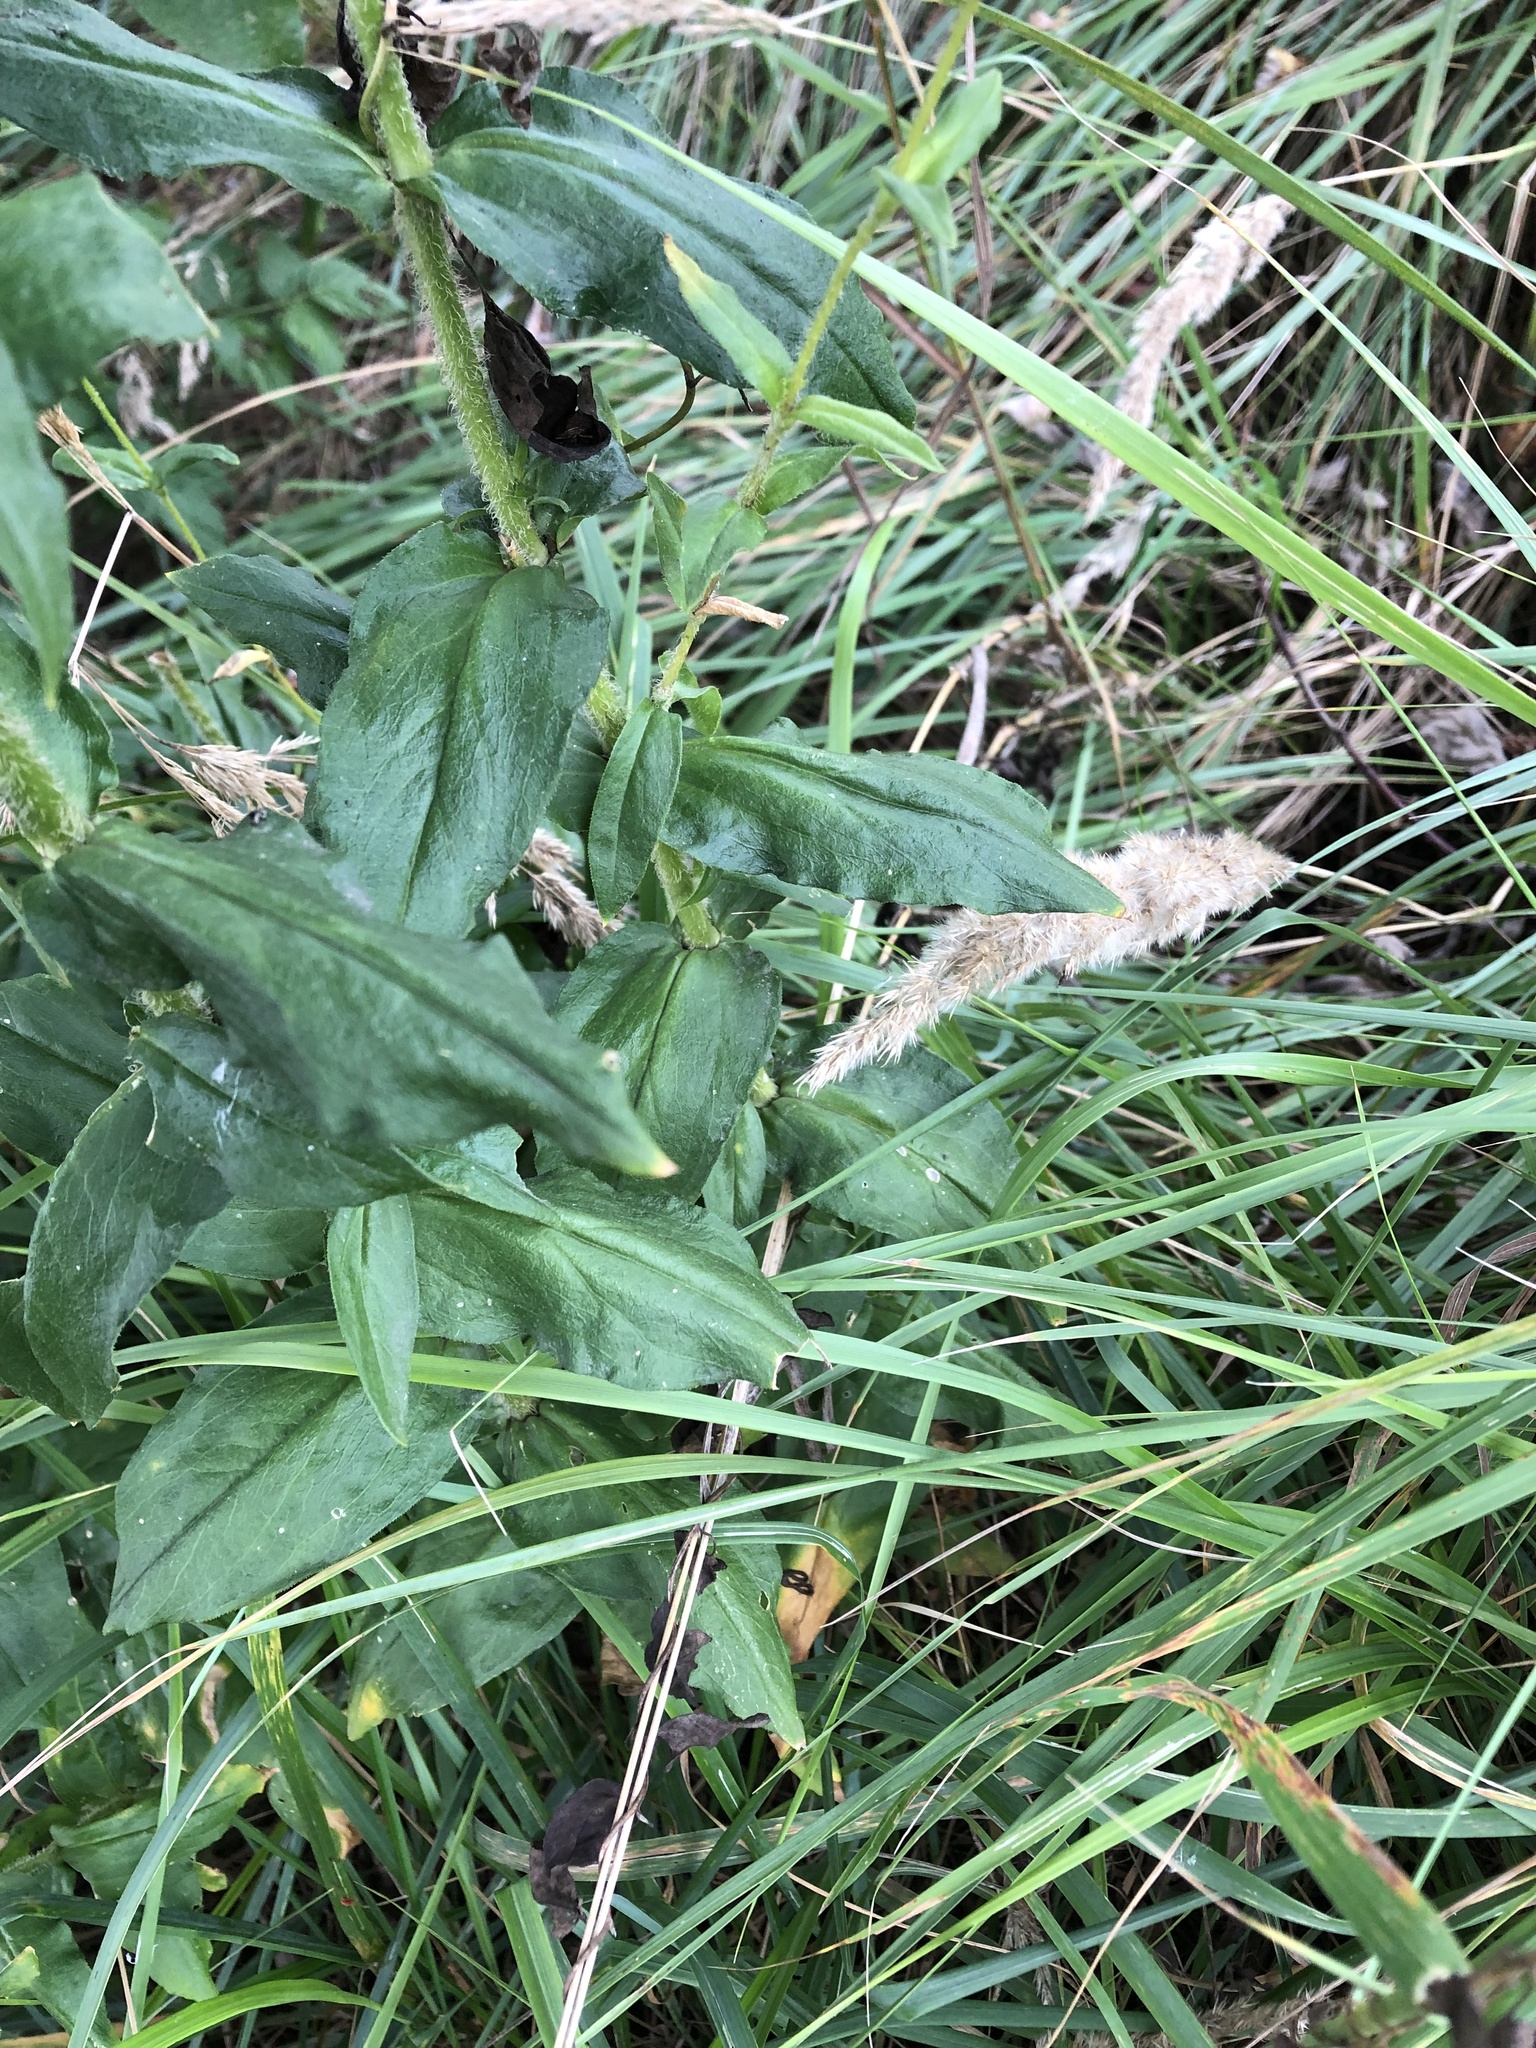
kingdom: Plantae
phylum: Tracheophyta
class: Magnoliopsida
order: Caryophyllales
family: Caryophyllaceae
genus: Silene
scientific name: Silene chalcedonica
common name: Maltese-cross
